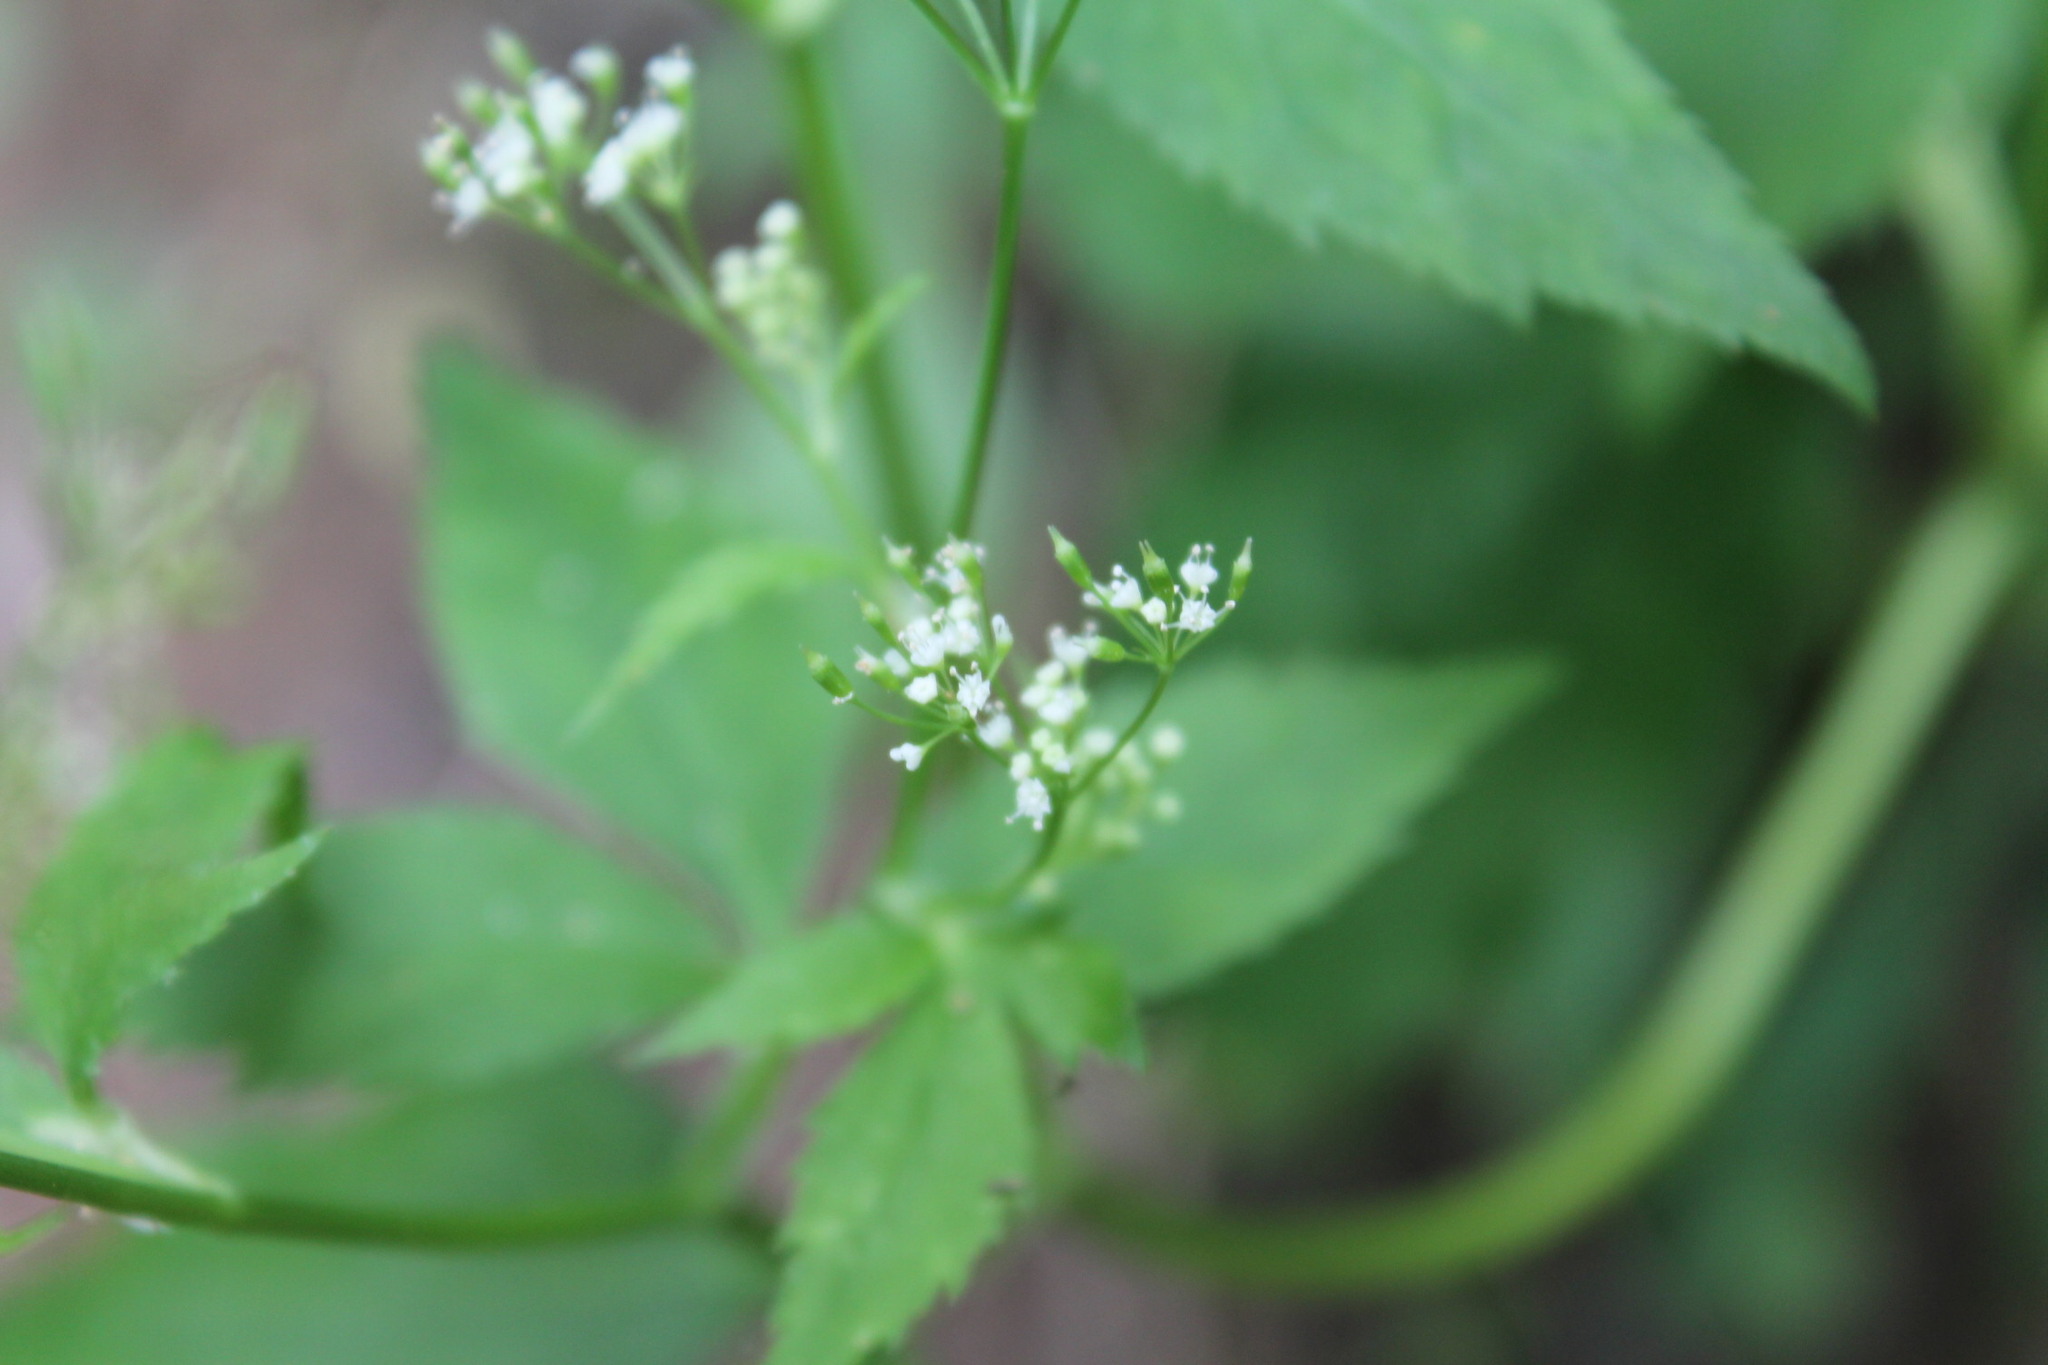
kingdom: Plantae
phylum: Tracheophyta
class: Magnoliopsida
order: Apiales
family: Apiaceae
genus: Cryptotaenia
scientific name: Cryptotaenia canadensis
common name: Honewort
